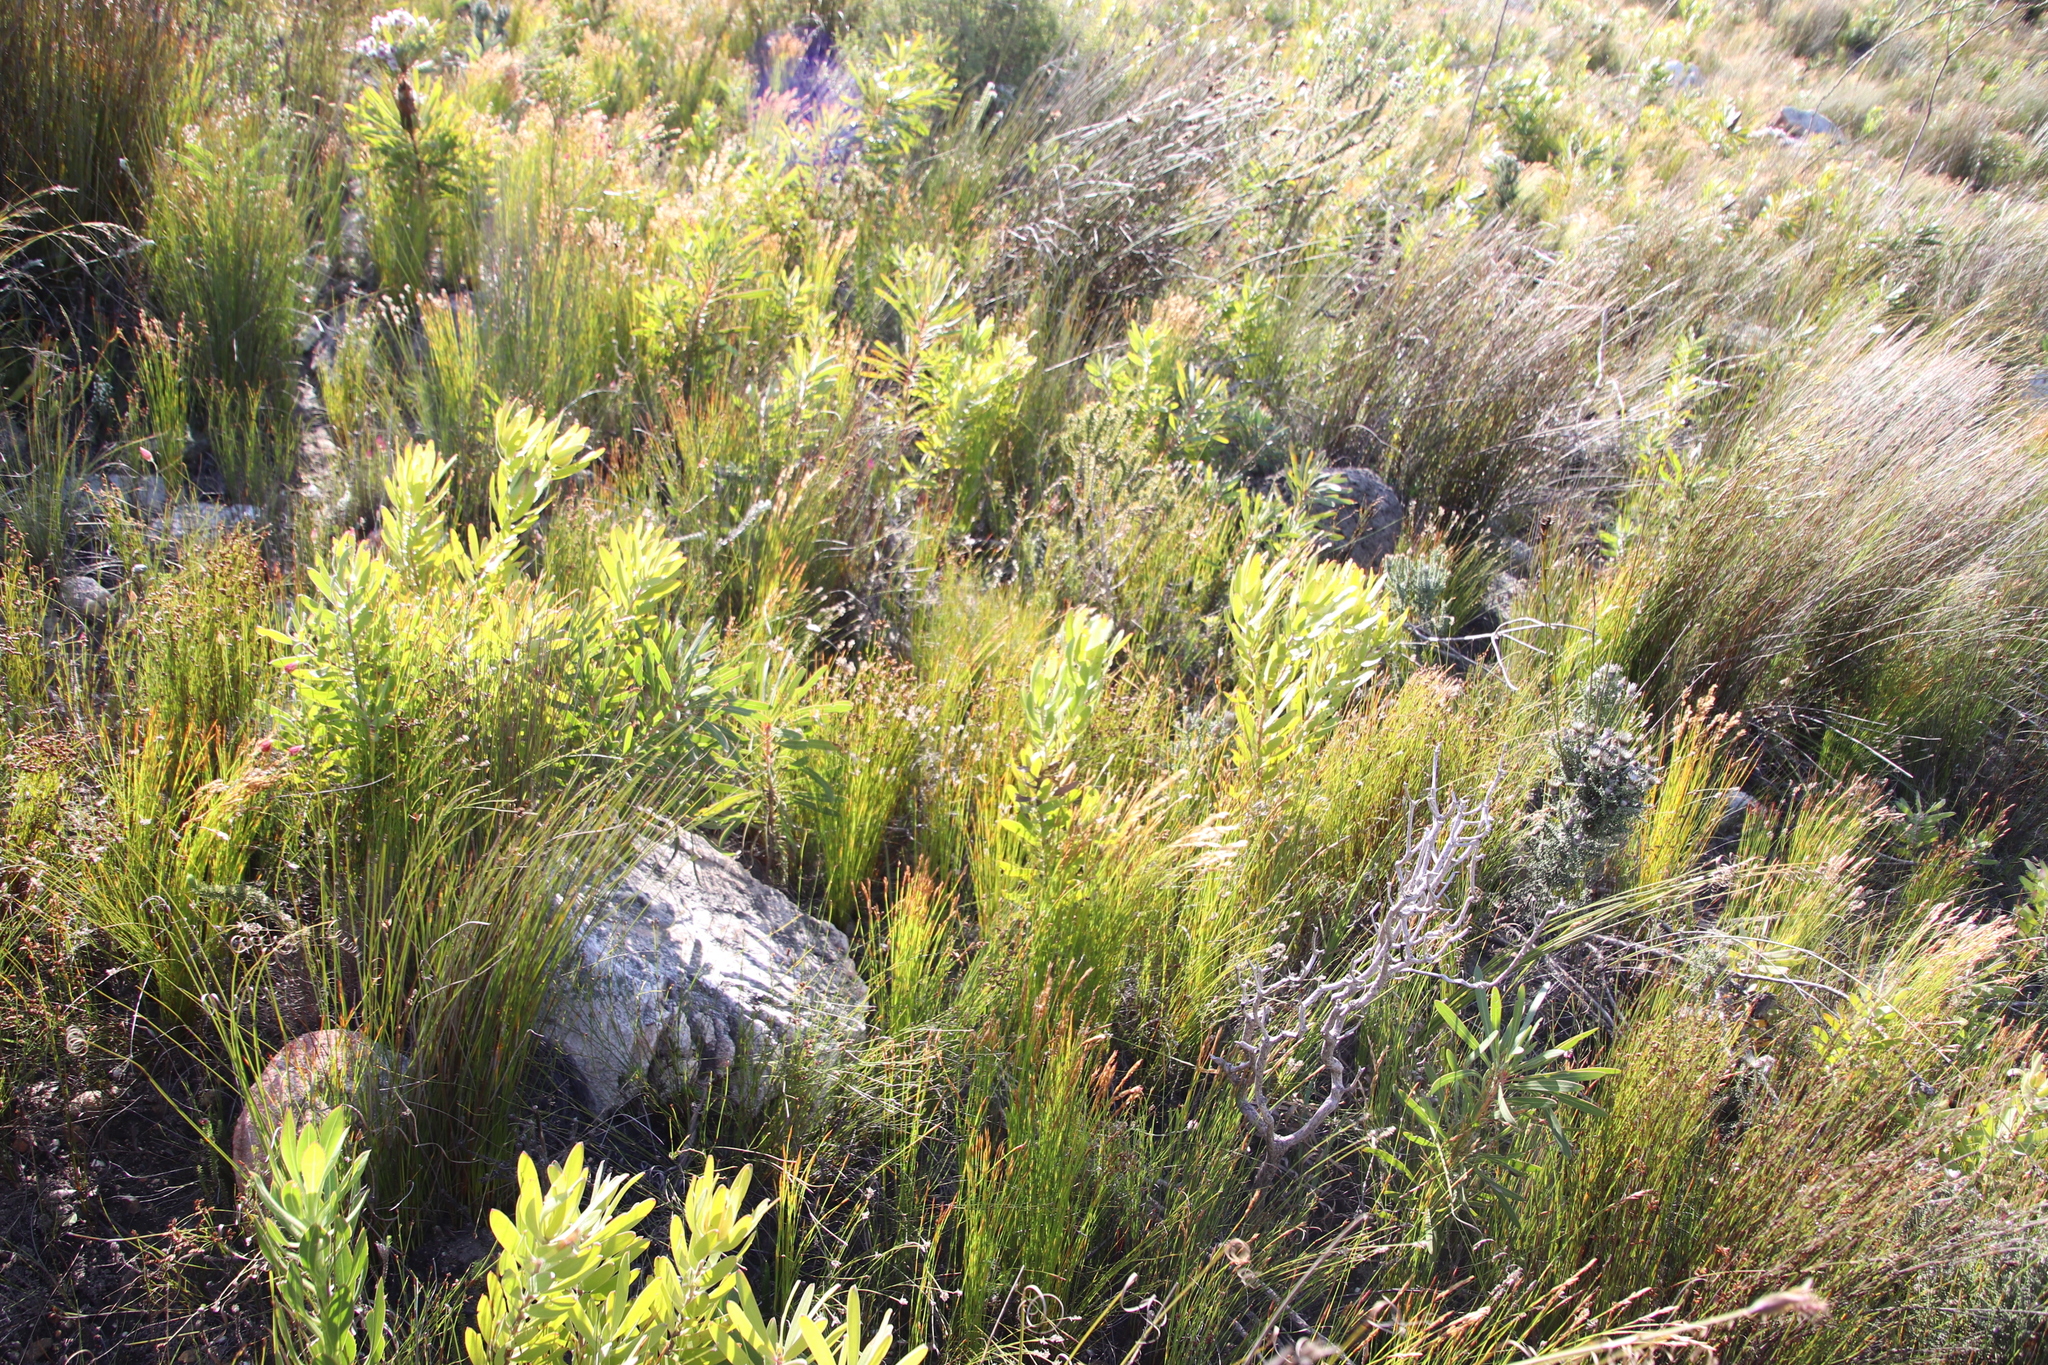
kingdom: Plantae
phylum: Tracheophyta
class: Magnoliopsida
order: Proteales
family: Proteaceae
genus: Leucadendron
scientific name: Leucadendron laureolum
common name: Golden sunshinebush
